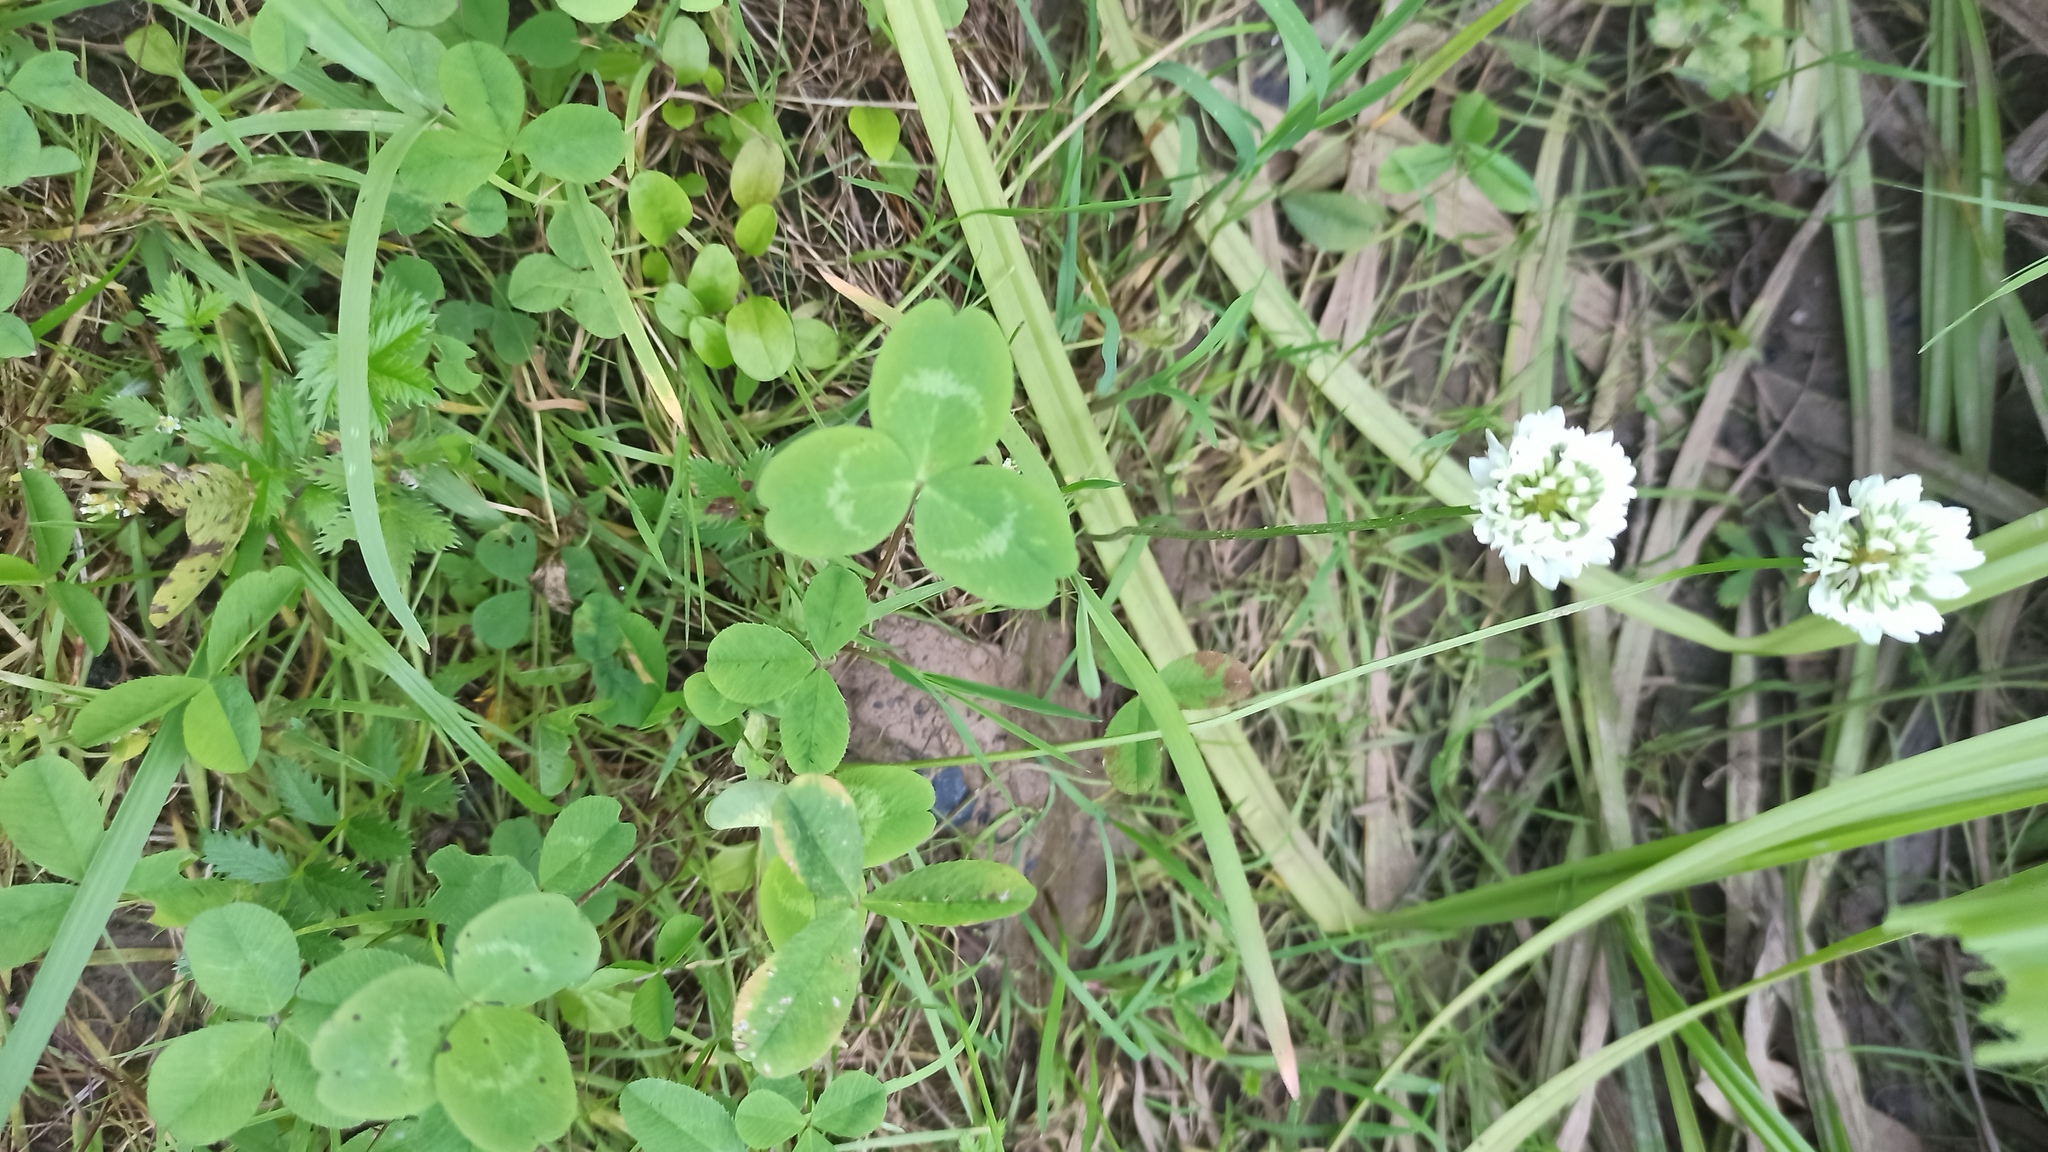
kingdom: Plantae
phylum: Tracheophyta
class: Magnoliopsida
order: Fabales
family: Fabaceae
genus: Trifolium
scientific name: Trifolium repens
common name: White clover
